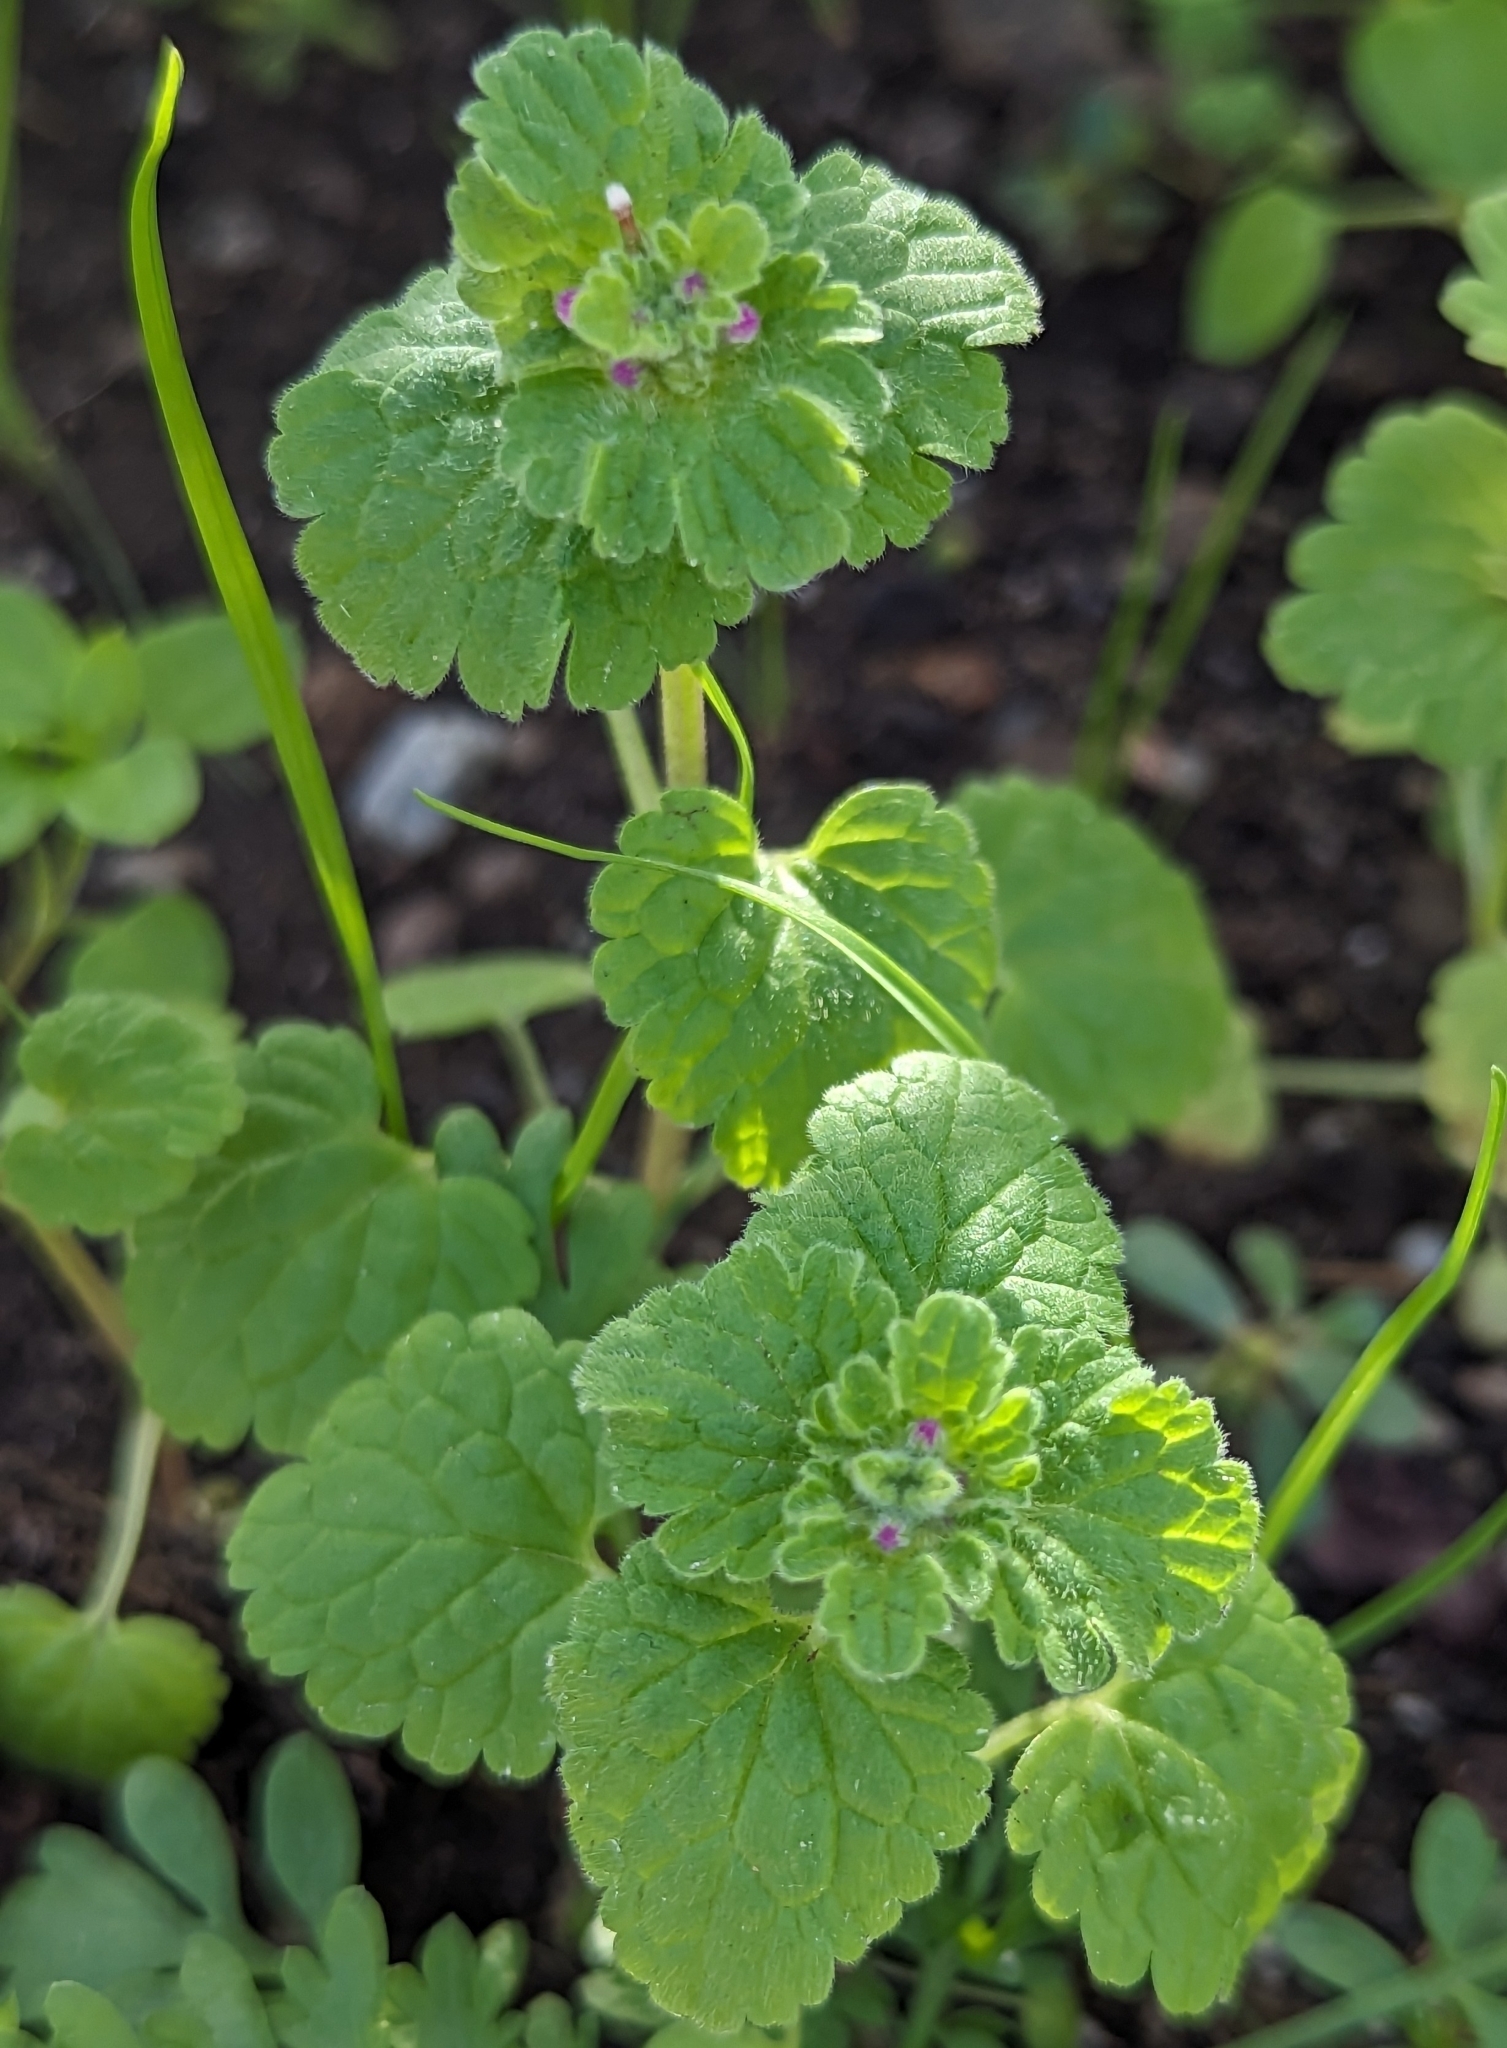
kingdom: Plantae
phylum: Tracheophyta
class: Magnoliopsida
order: Lamiales
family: Lamiaceae
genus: Lamium
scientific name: Lamium amplexicaule
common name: Henbit dead-nettle
